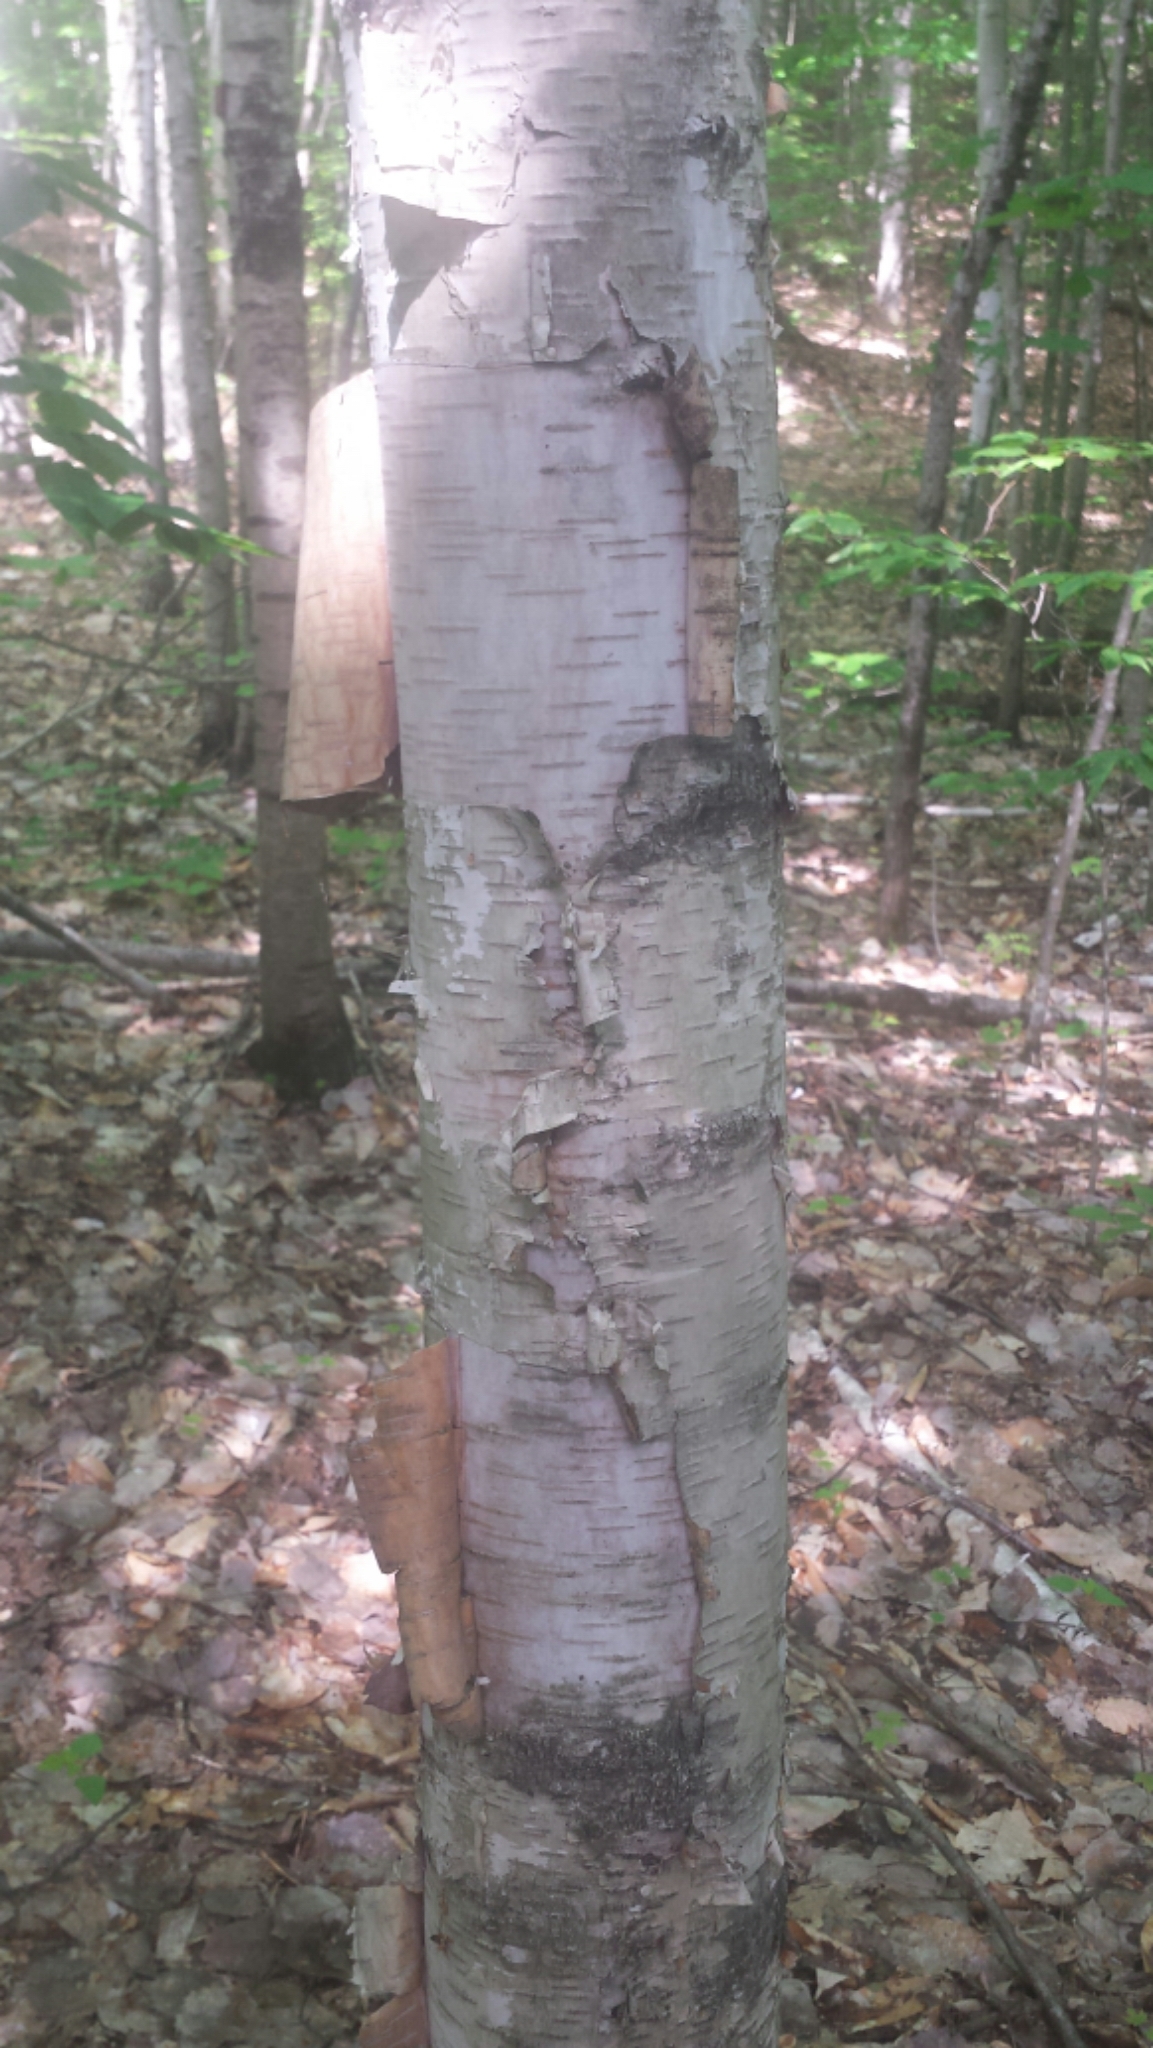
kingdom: Plantae
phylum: Tracheophyta
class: Magnoliopsida
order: Fagales
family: Betulaceae
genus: Betula
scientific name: Betula papyrifera
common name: Paper birch
